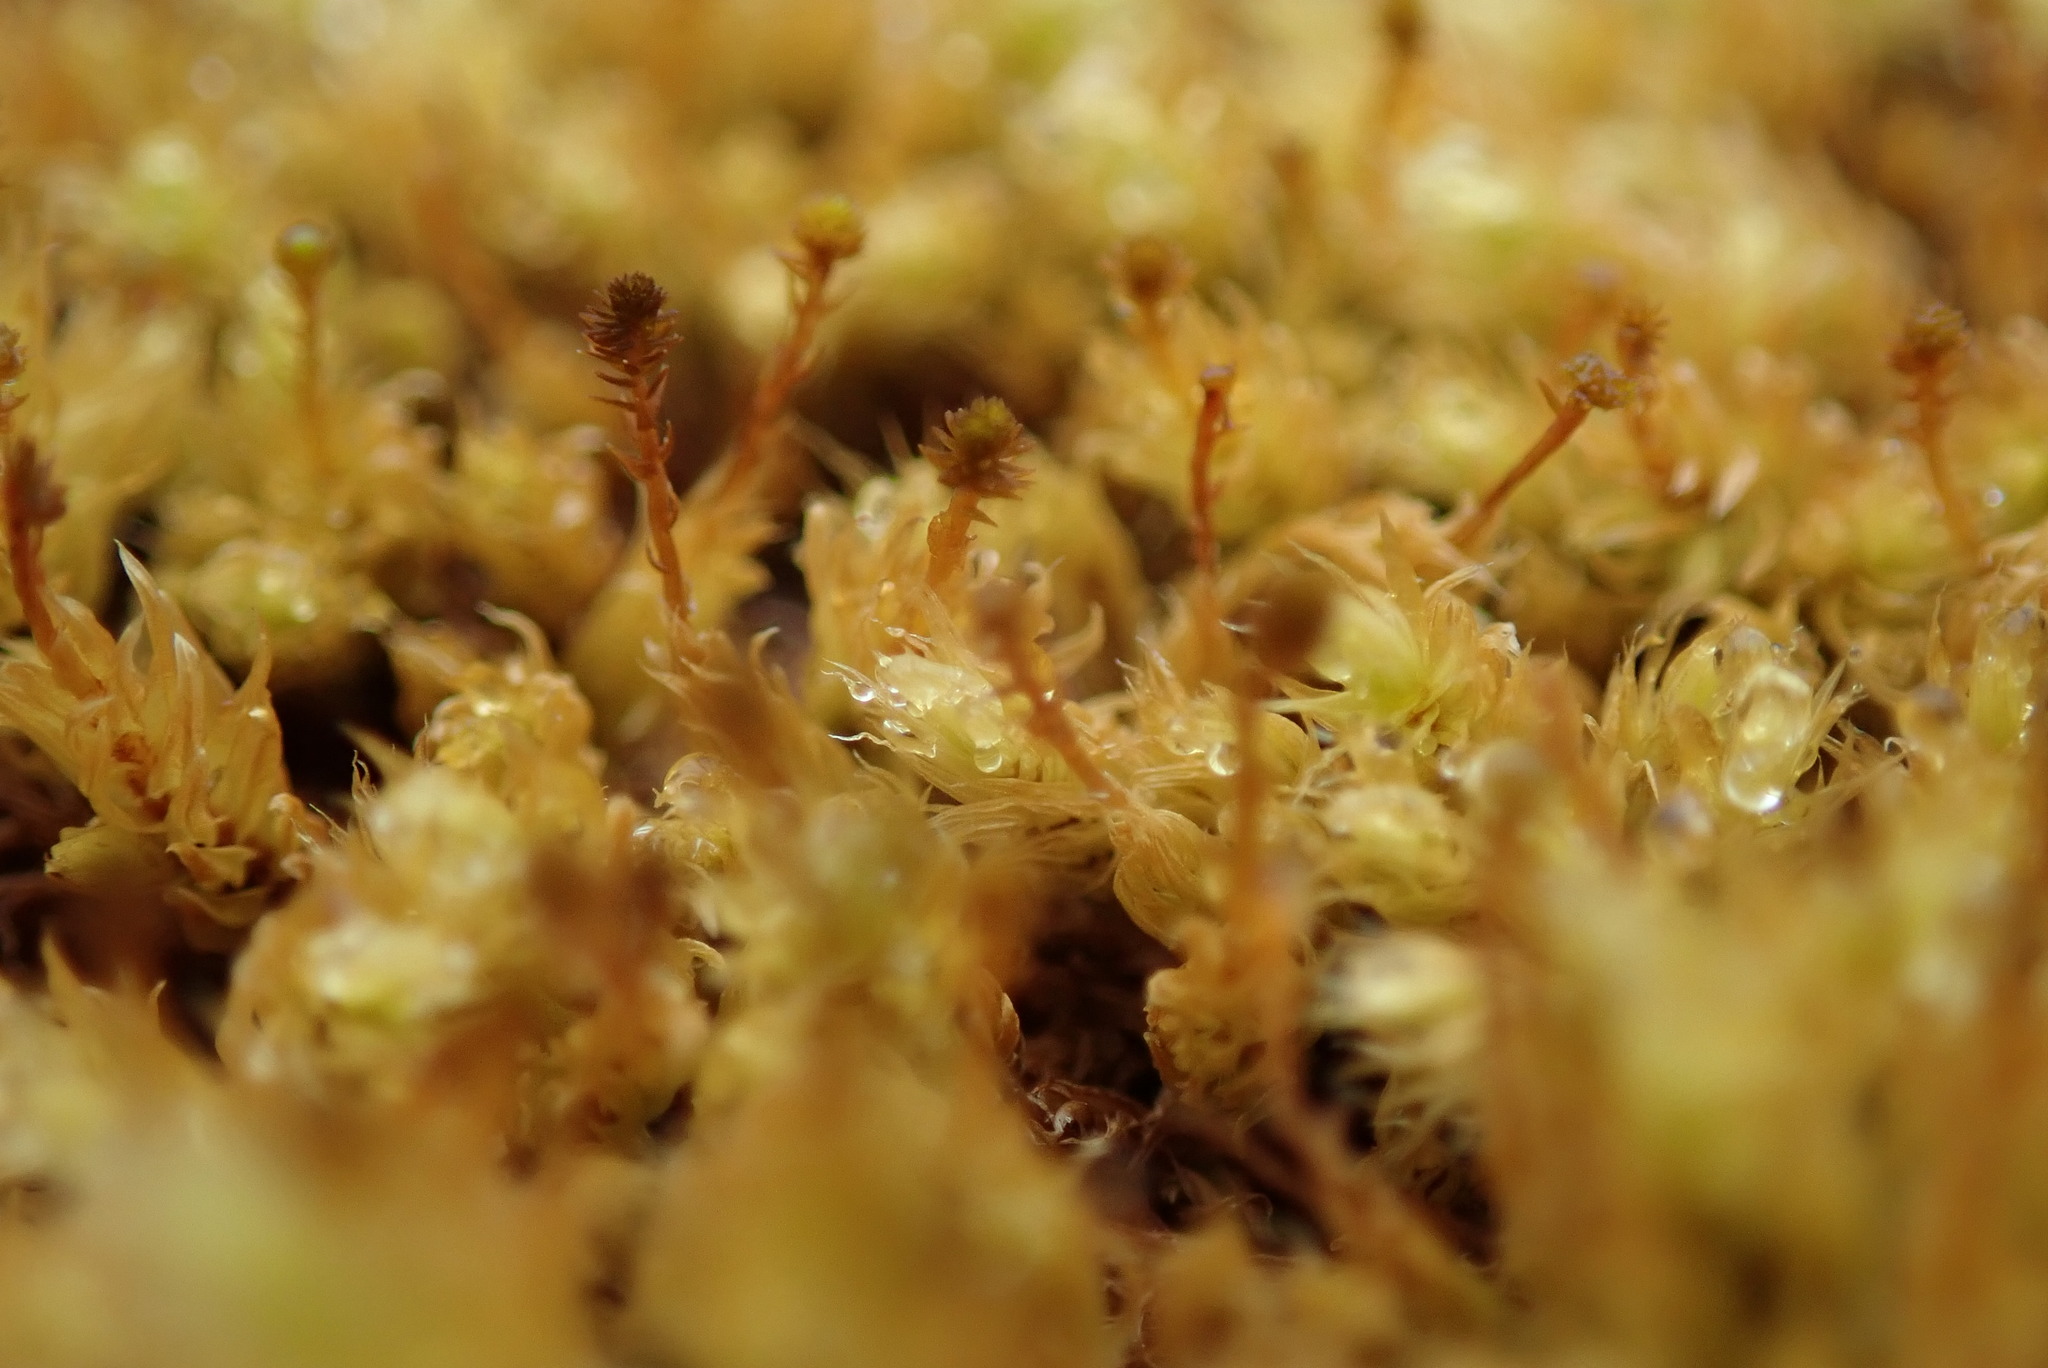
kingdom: Plantae
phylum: Bryophyta
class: Bryopsida
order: Aulacomniales
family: Aulacomniaceae
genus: Aulacomnium
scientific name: Aulacomnium palustre
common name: Bog groove-moss
